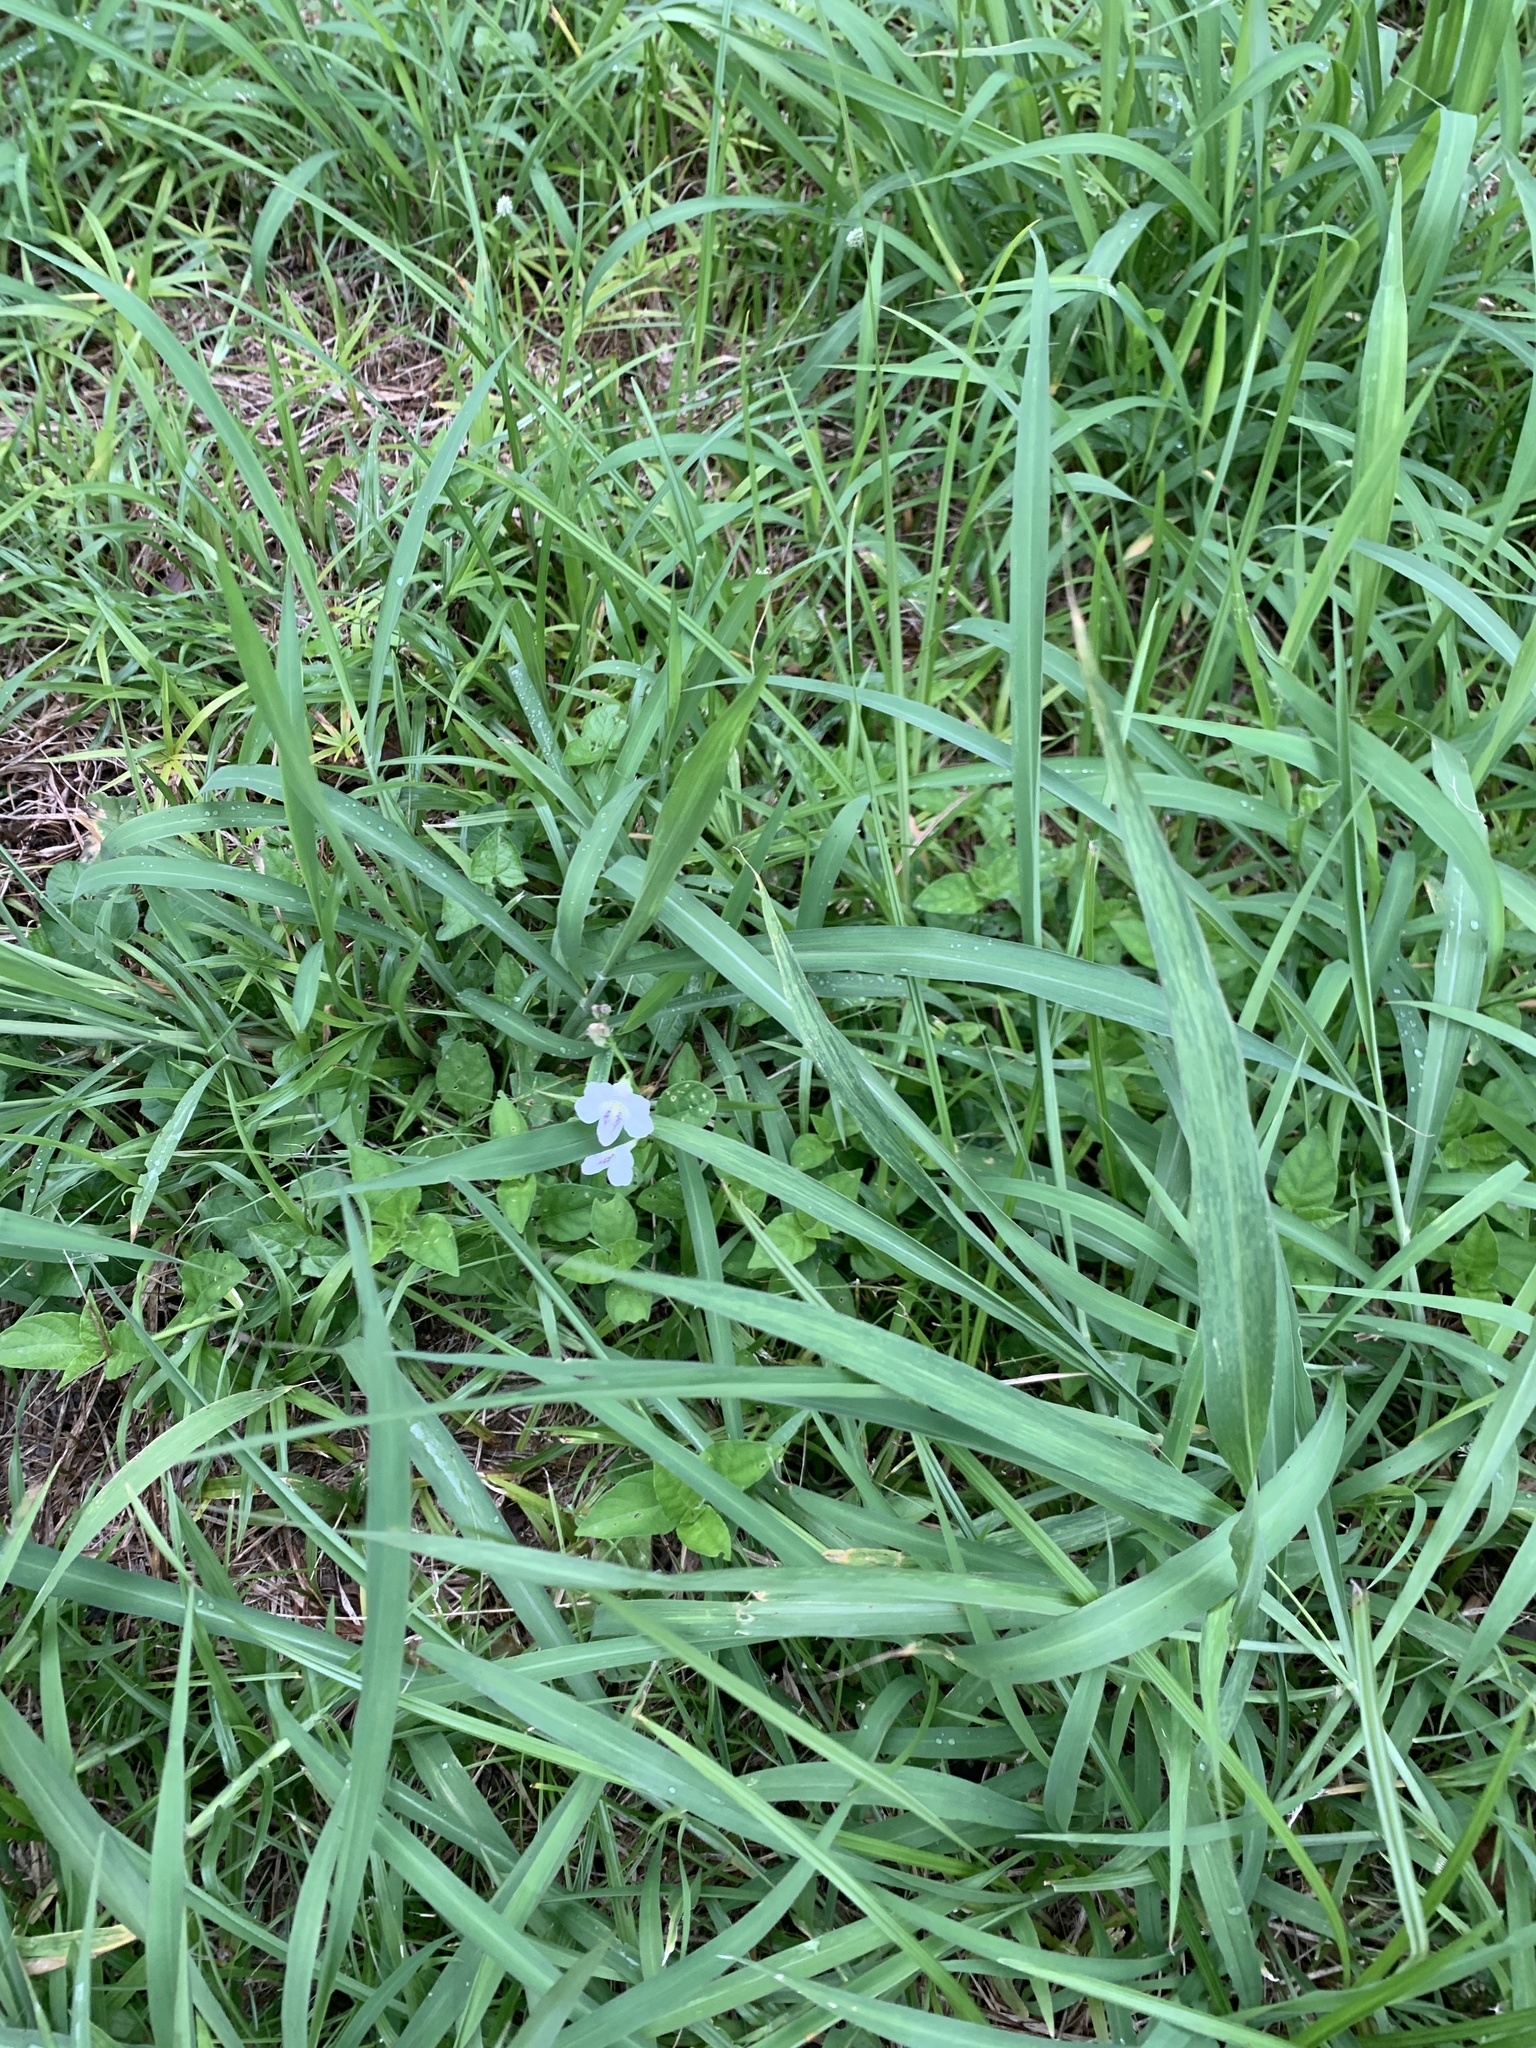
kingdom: Plantae
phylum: Tracheophyta
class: Magnoliopsida
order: Lamiales
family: Acanthaceae
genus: Asystasia
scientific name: Asystasia intrusa
